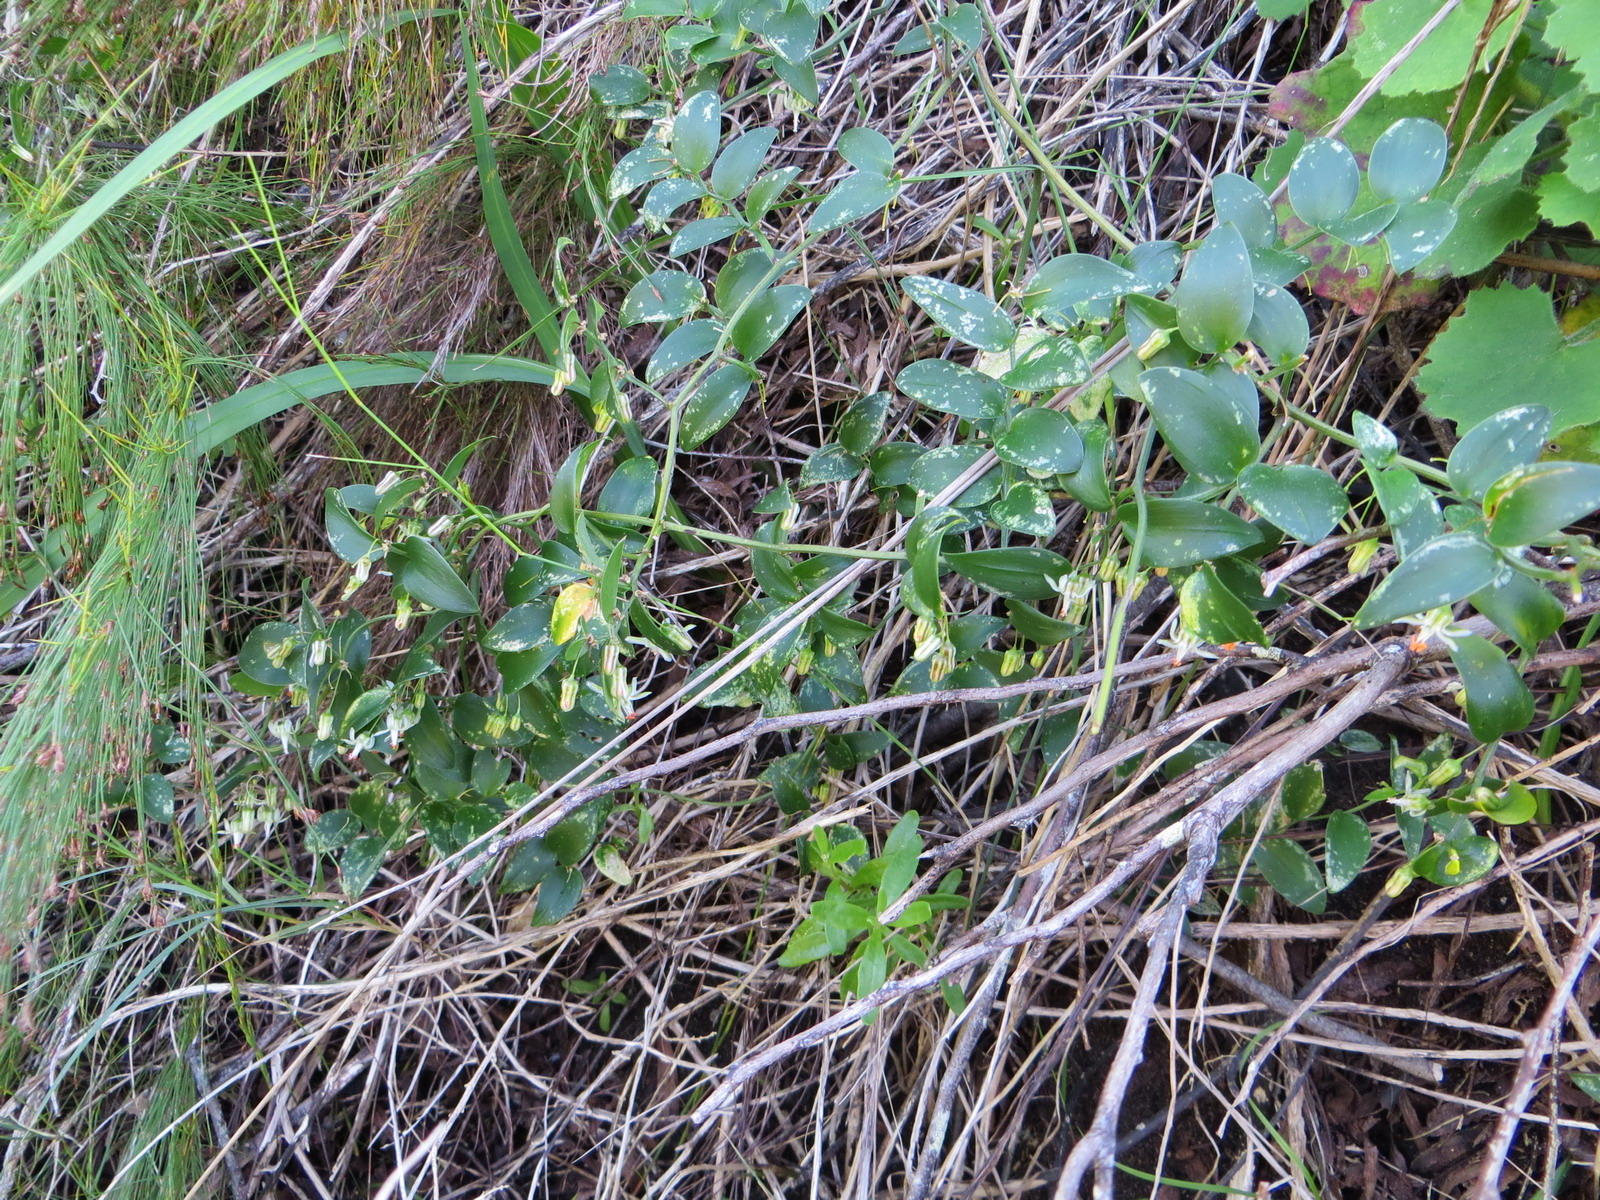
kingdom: Plantae
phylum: Tracheophyta
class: Liliopsida
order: Asparagales
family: Asparagaceae
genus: Asparagus
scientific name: Asparagus asparagoides
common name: African asparagus fern
